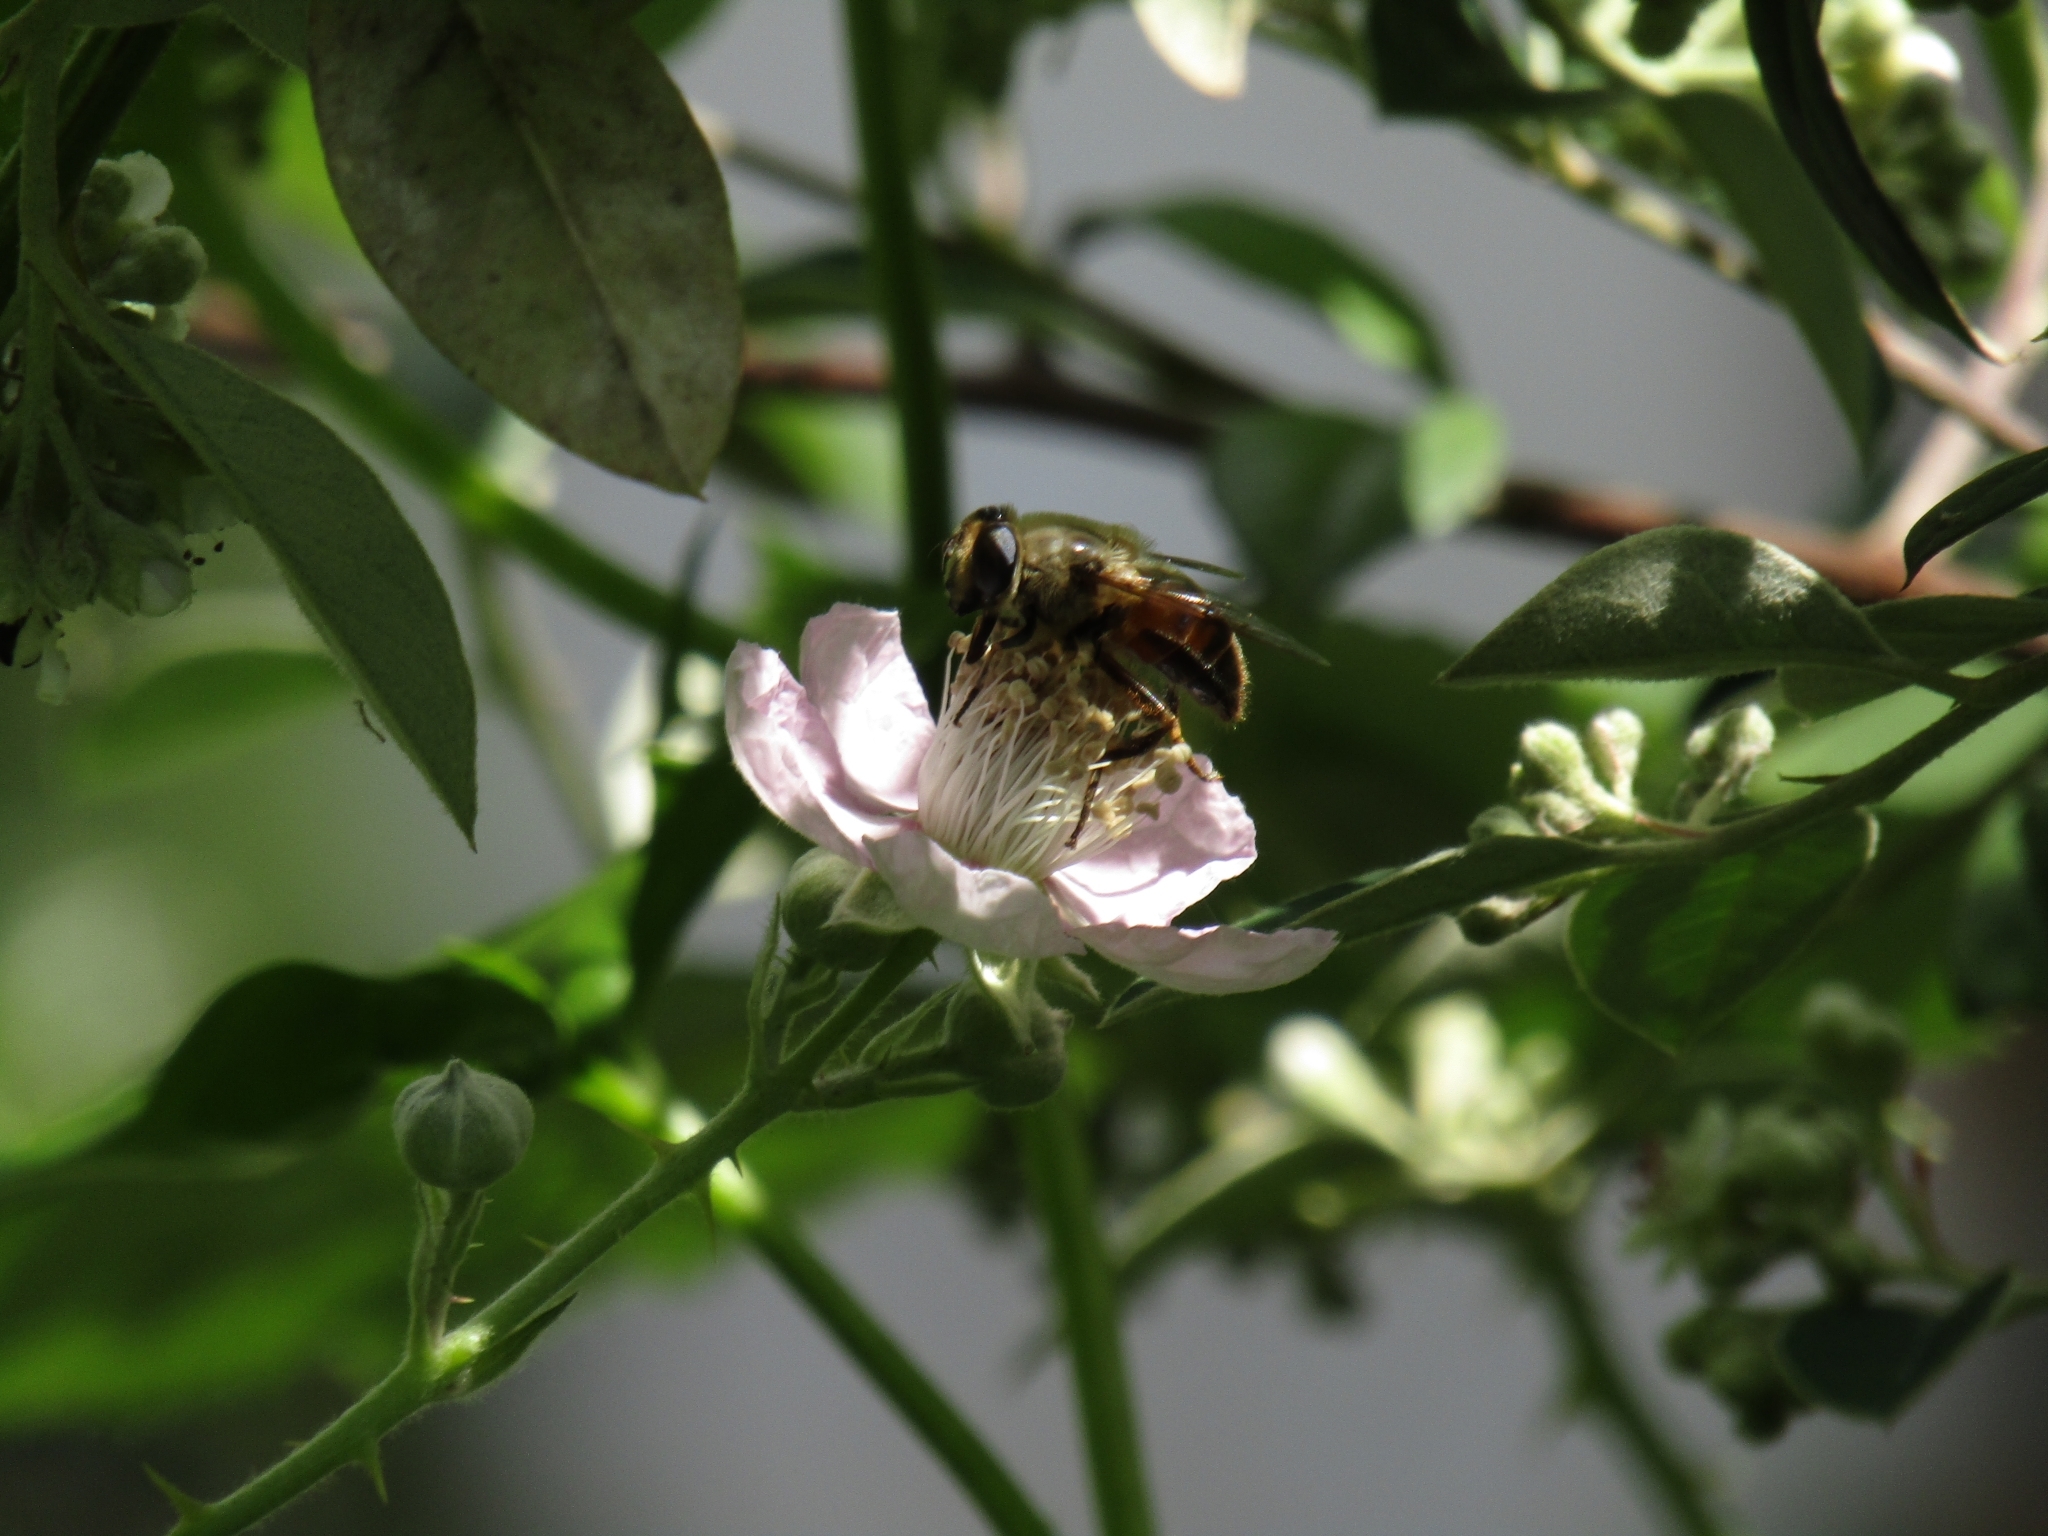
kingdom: Animalia
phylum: Arthropoda
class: Insecta
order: Diptera
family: Syrphidae
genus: Eristalis
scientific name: Eristalis tenax
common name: Drone fly
